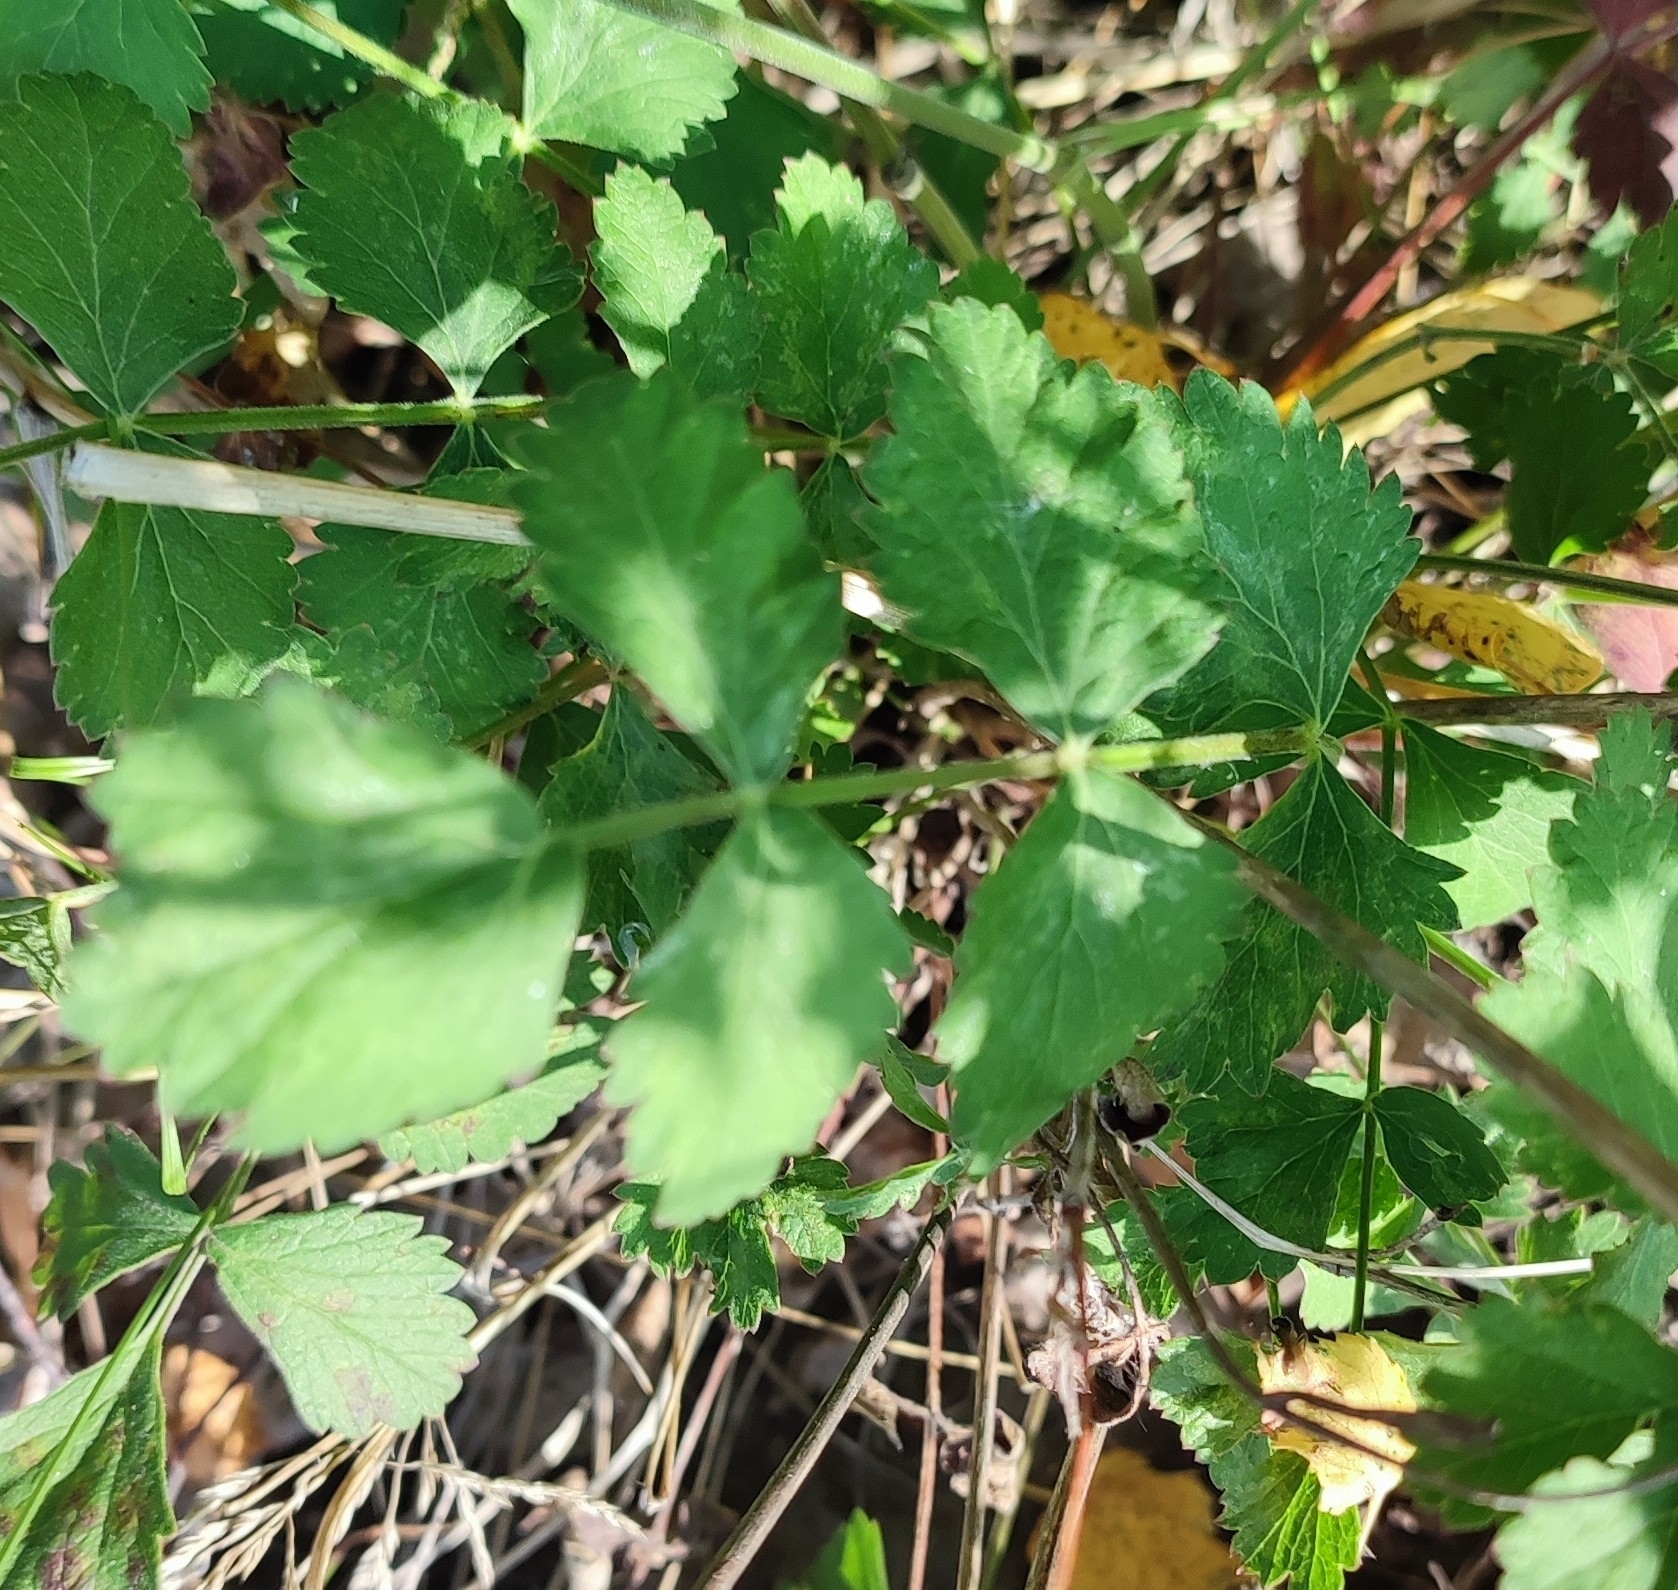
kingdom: Plantae
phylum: Tracheophyta
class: Magnoliopsida
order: Apiales
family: Apiaceae
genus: Pimpinella
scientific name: Pimpinella saxifraga
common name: Burnet-saxifrage
